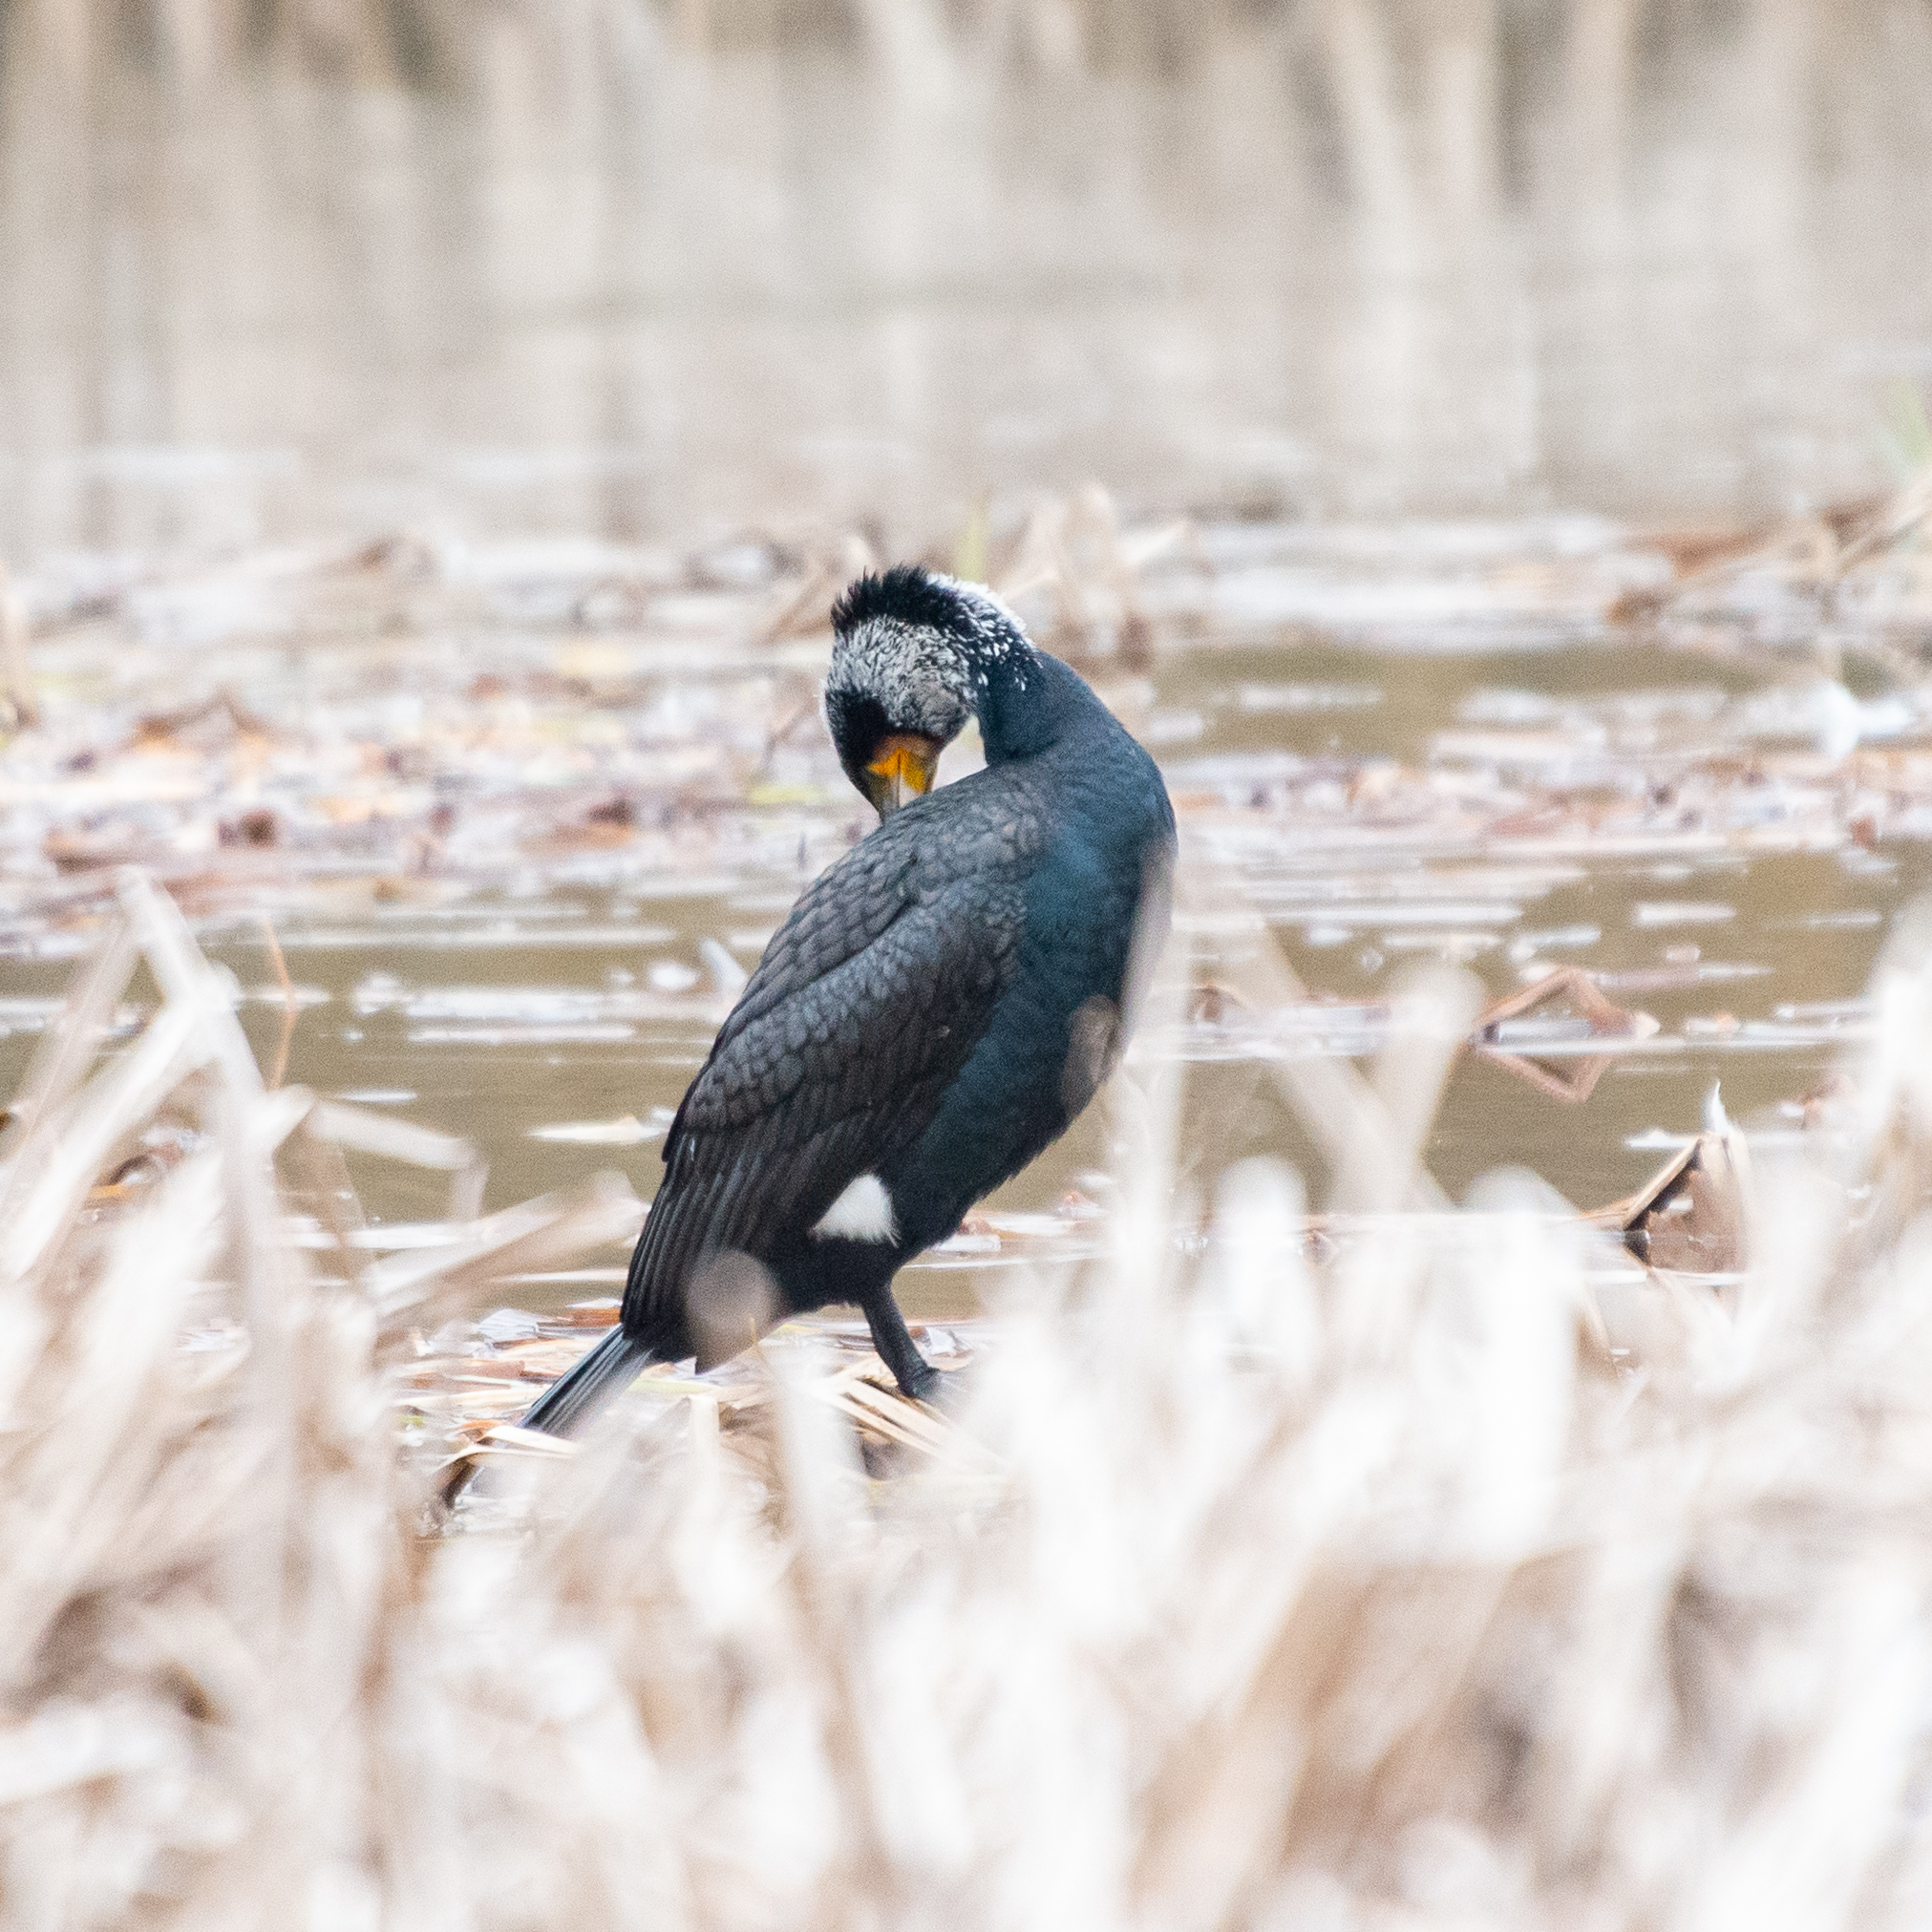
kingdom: Animalia
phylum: Chordata
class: Aves
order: Suliformes
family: Phalacrocoracidae
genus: Phalacrocorax
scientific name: Phalacrocorax carbo
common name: Great cormorant
